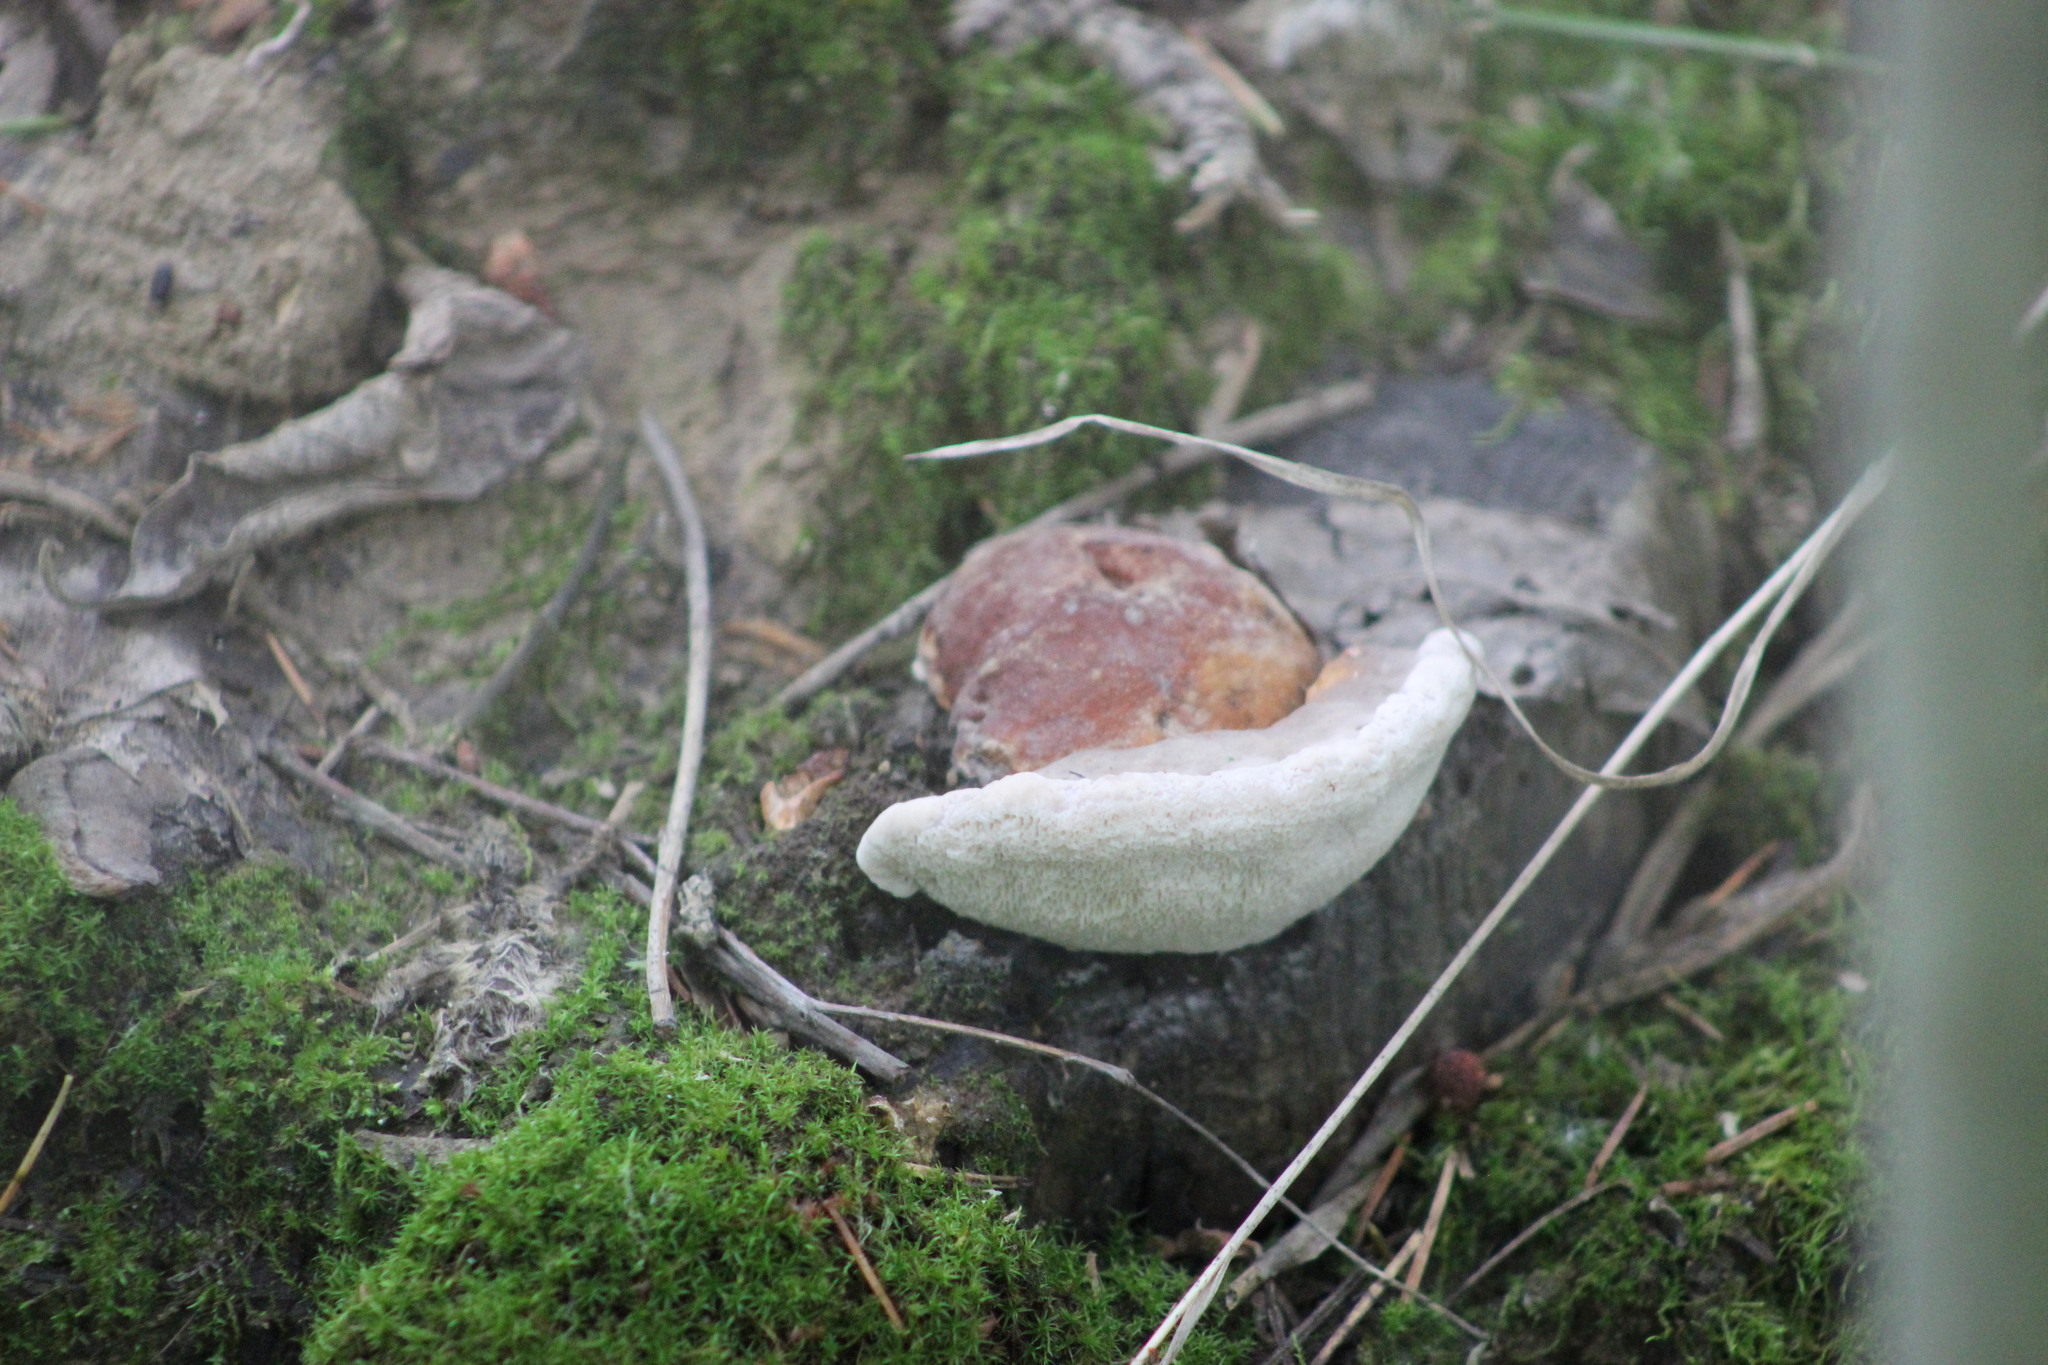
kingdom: Fungi
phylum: Basidiomycota
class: Agaricomycetes
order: Polyporales
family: Fomitopsidaceae
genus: Fomitopsis
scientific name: Fomitopsis pinicola
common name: Red-belted bracket
